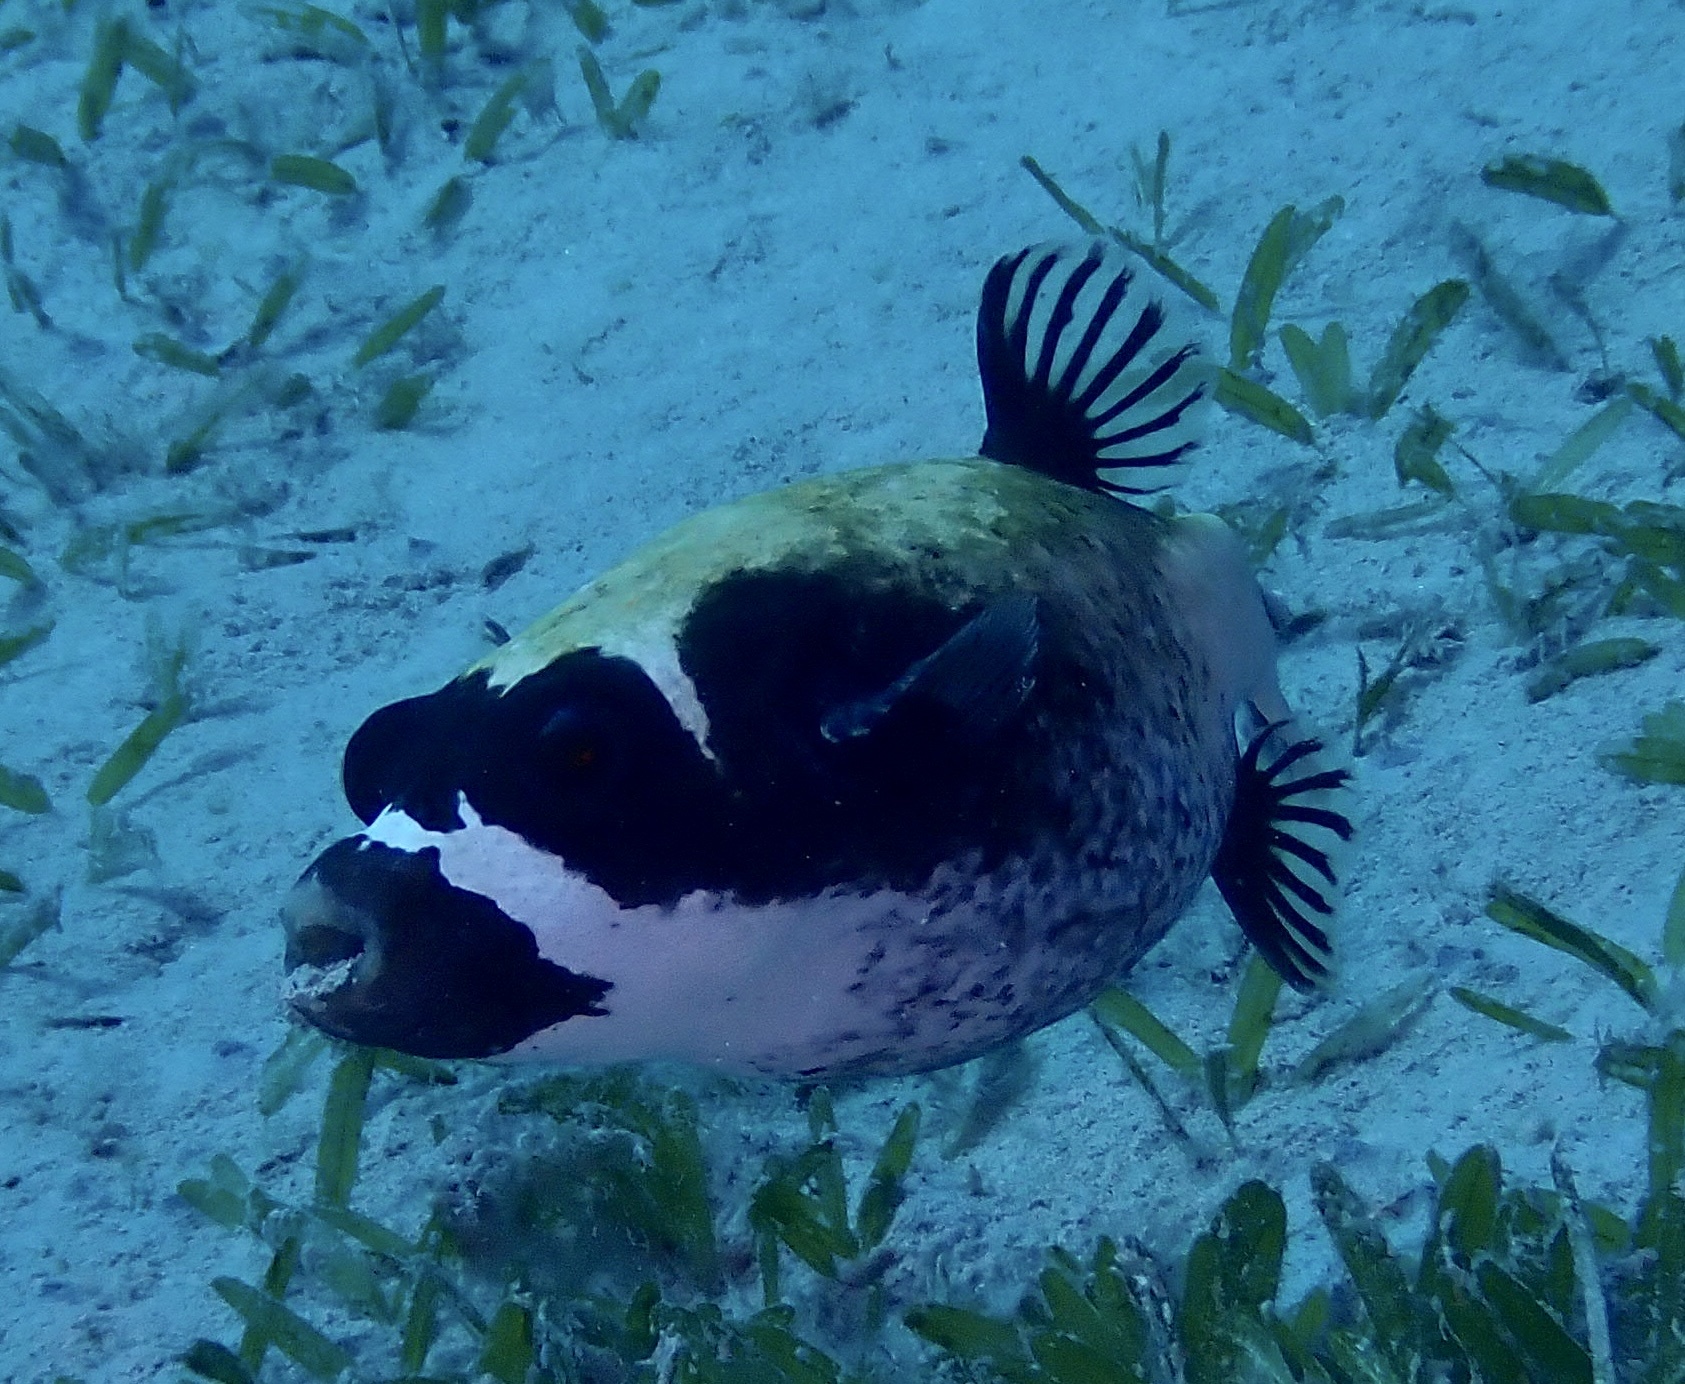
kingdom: Animalia
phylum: Chordata
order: Tetraodontiformes
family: Tetraodontidae
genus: Arothron
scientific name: Arothron diadematus
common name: Masked puffer
